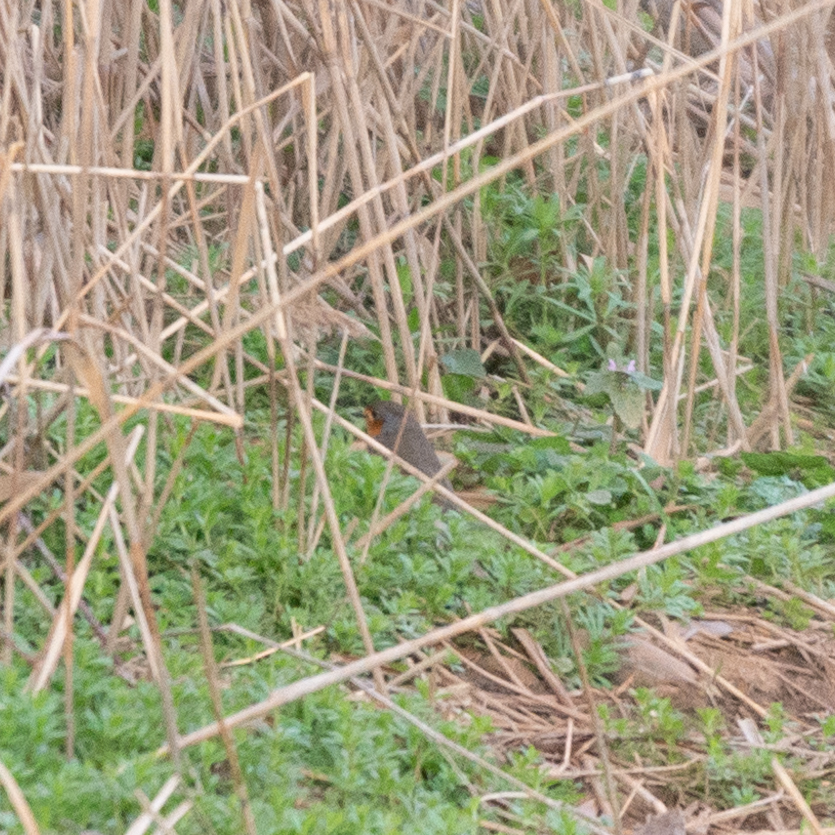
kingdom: Animalia
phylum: Chordata
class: Aves
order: Passeriformes
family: Muscicapidae
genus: Erithacus
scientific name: Erithacus rubecula
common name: European robin
